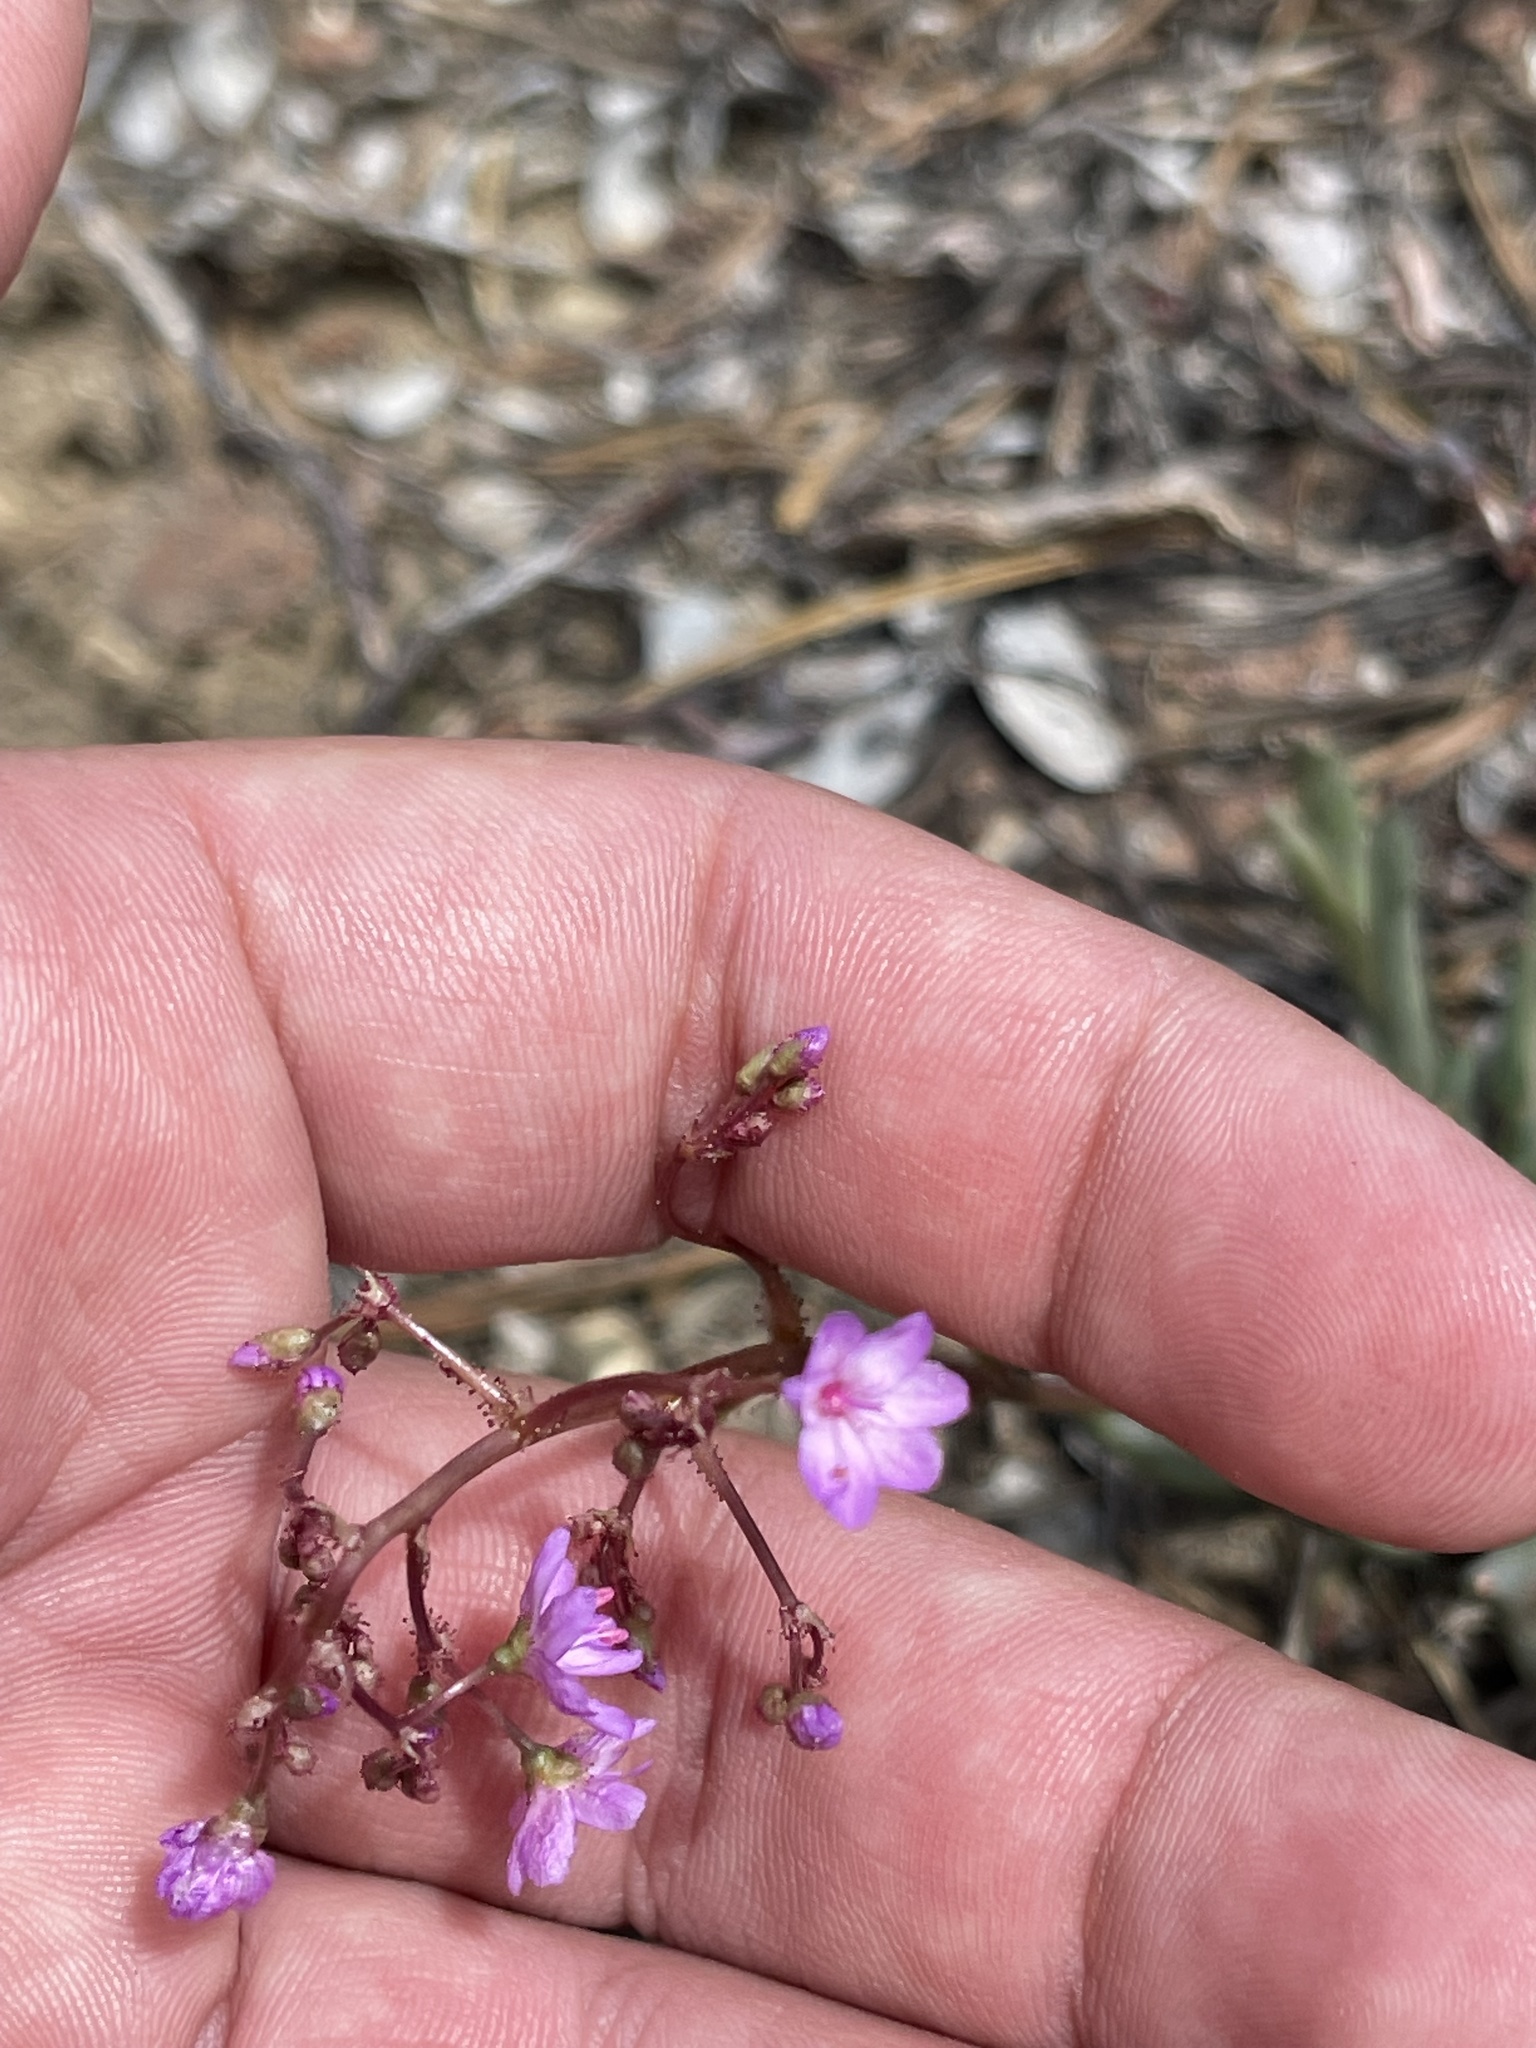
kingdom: Plantae
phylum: Tracheophyta
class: Magnoliopsida
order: Caryophyllales
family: Montiaceae
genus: Lewisia
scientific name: Lewisia leeana
